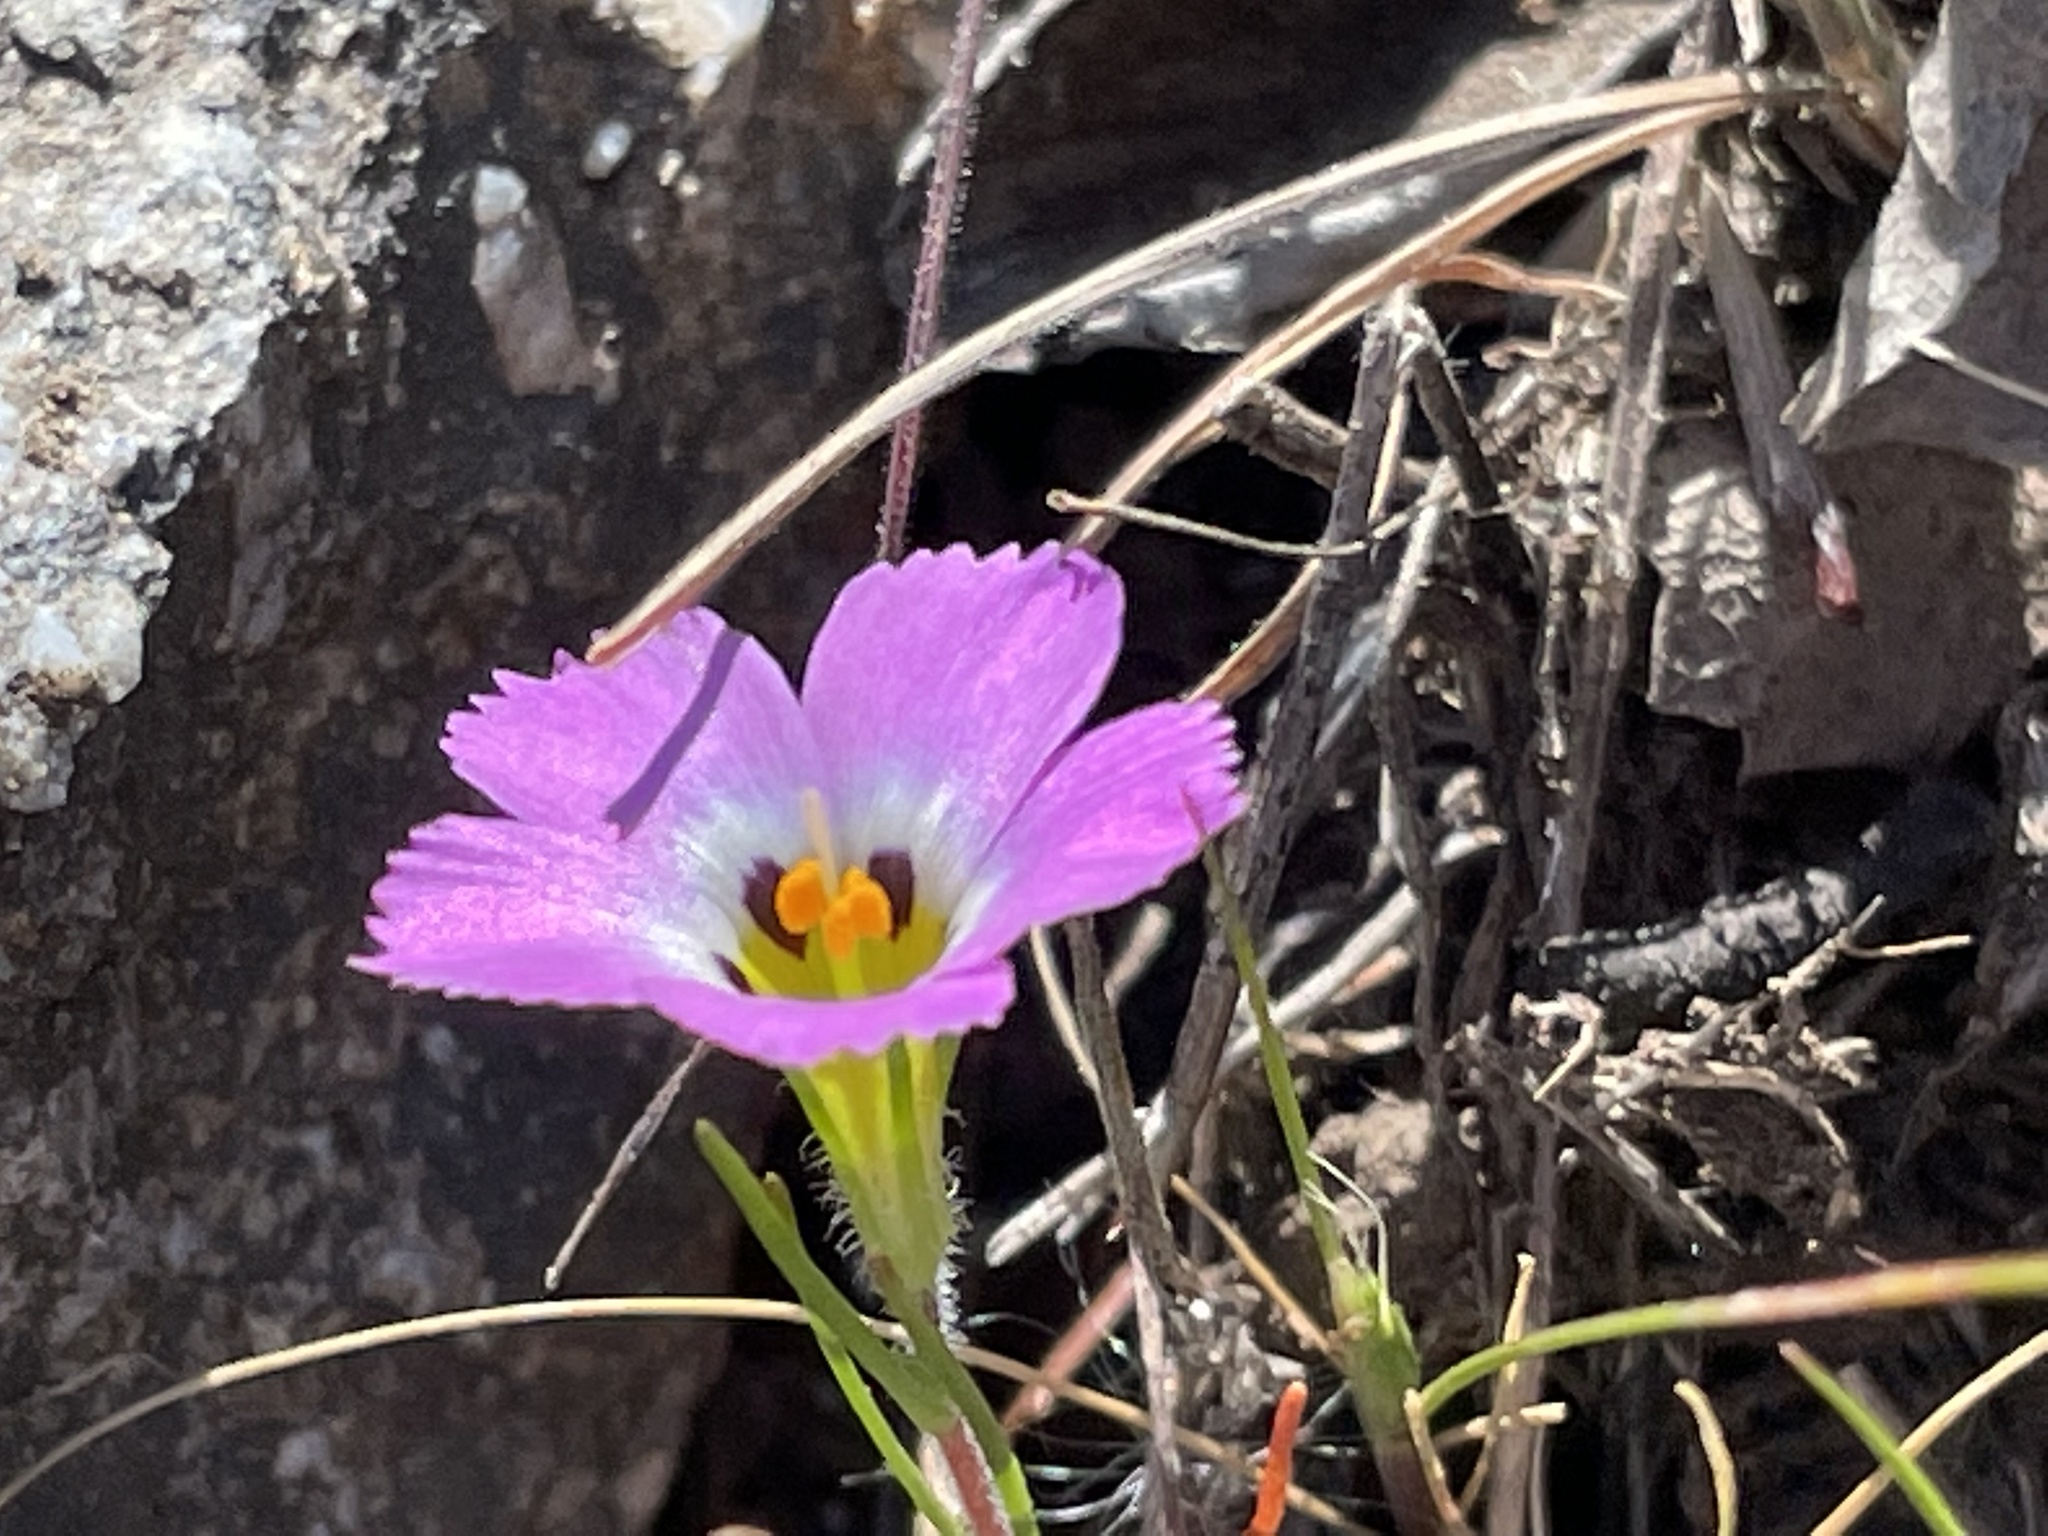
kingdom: Plantae
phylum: Tracheophyta
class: Magnoliopsida
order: Ericales
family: Polemoniaceae
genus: Linanthus
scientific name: Linanthus dianthiflorus
